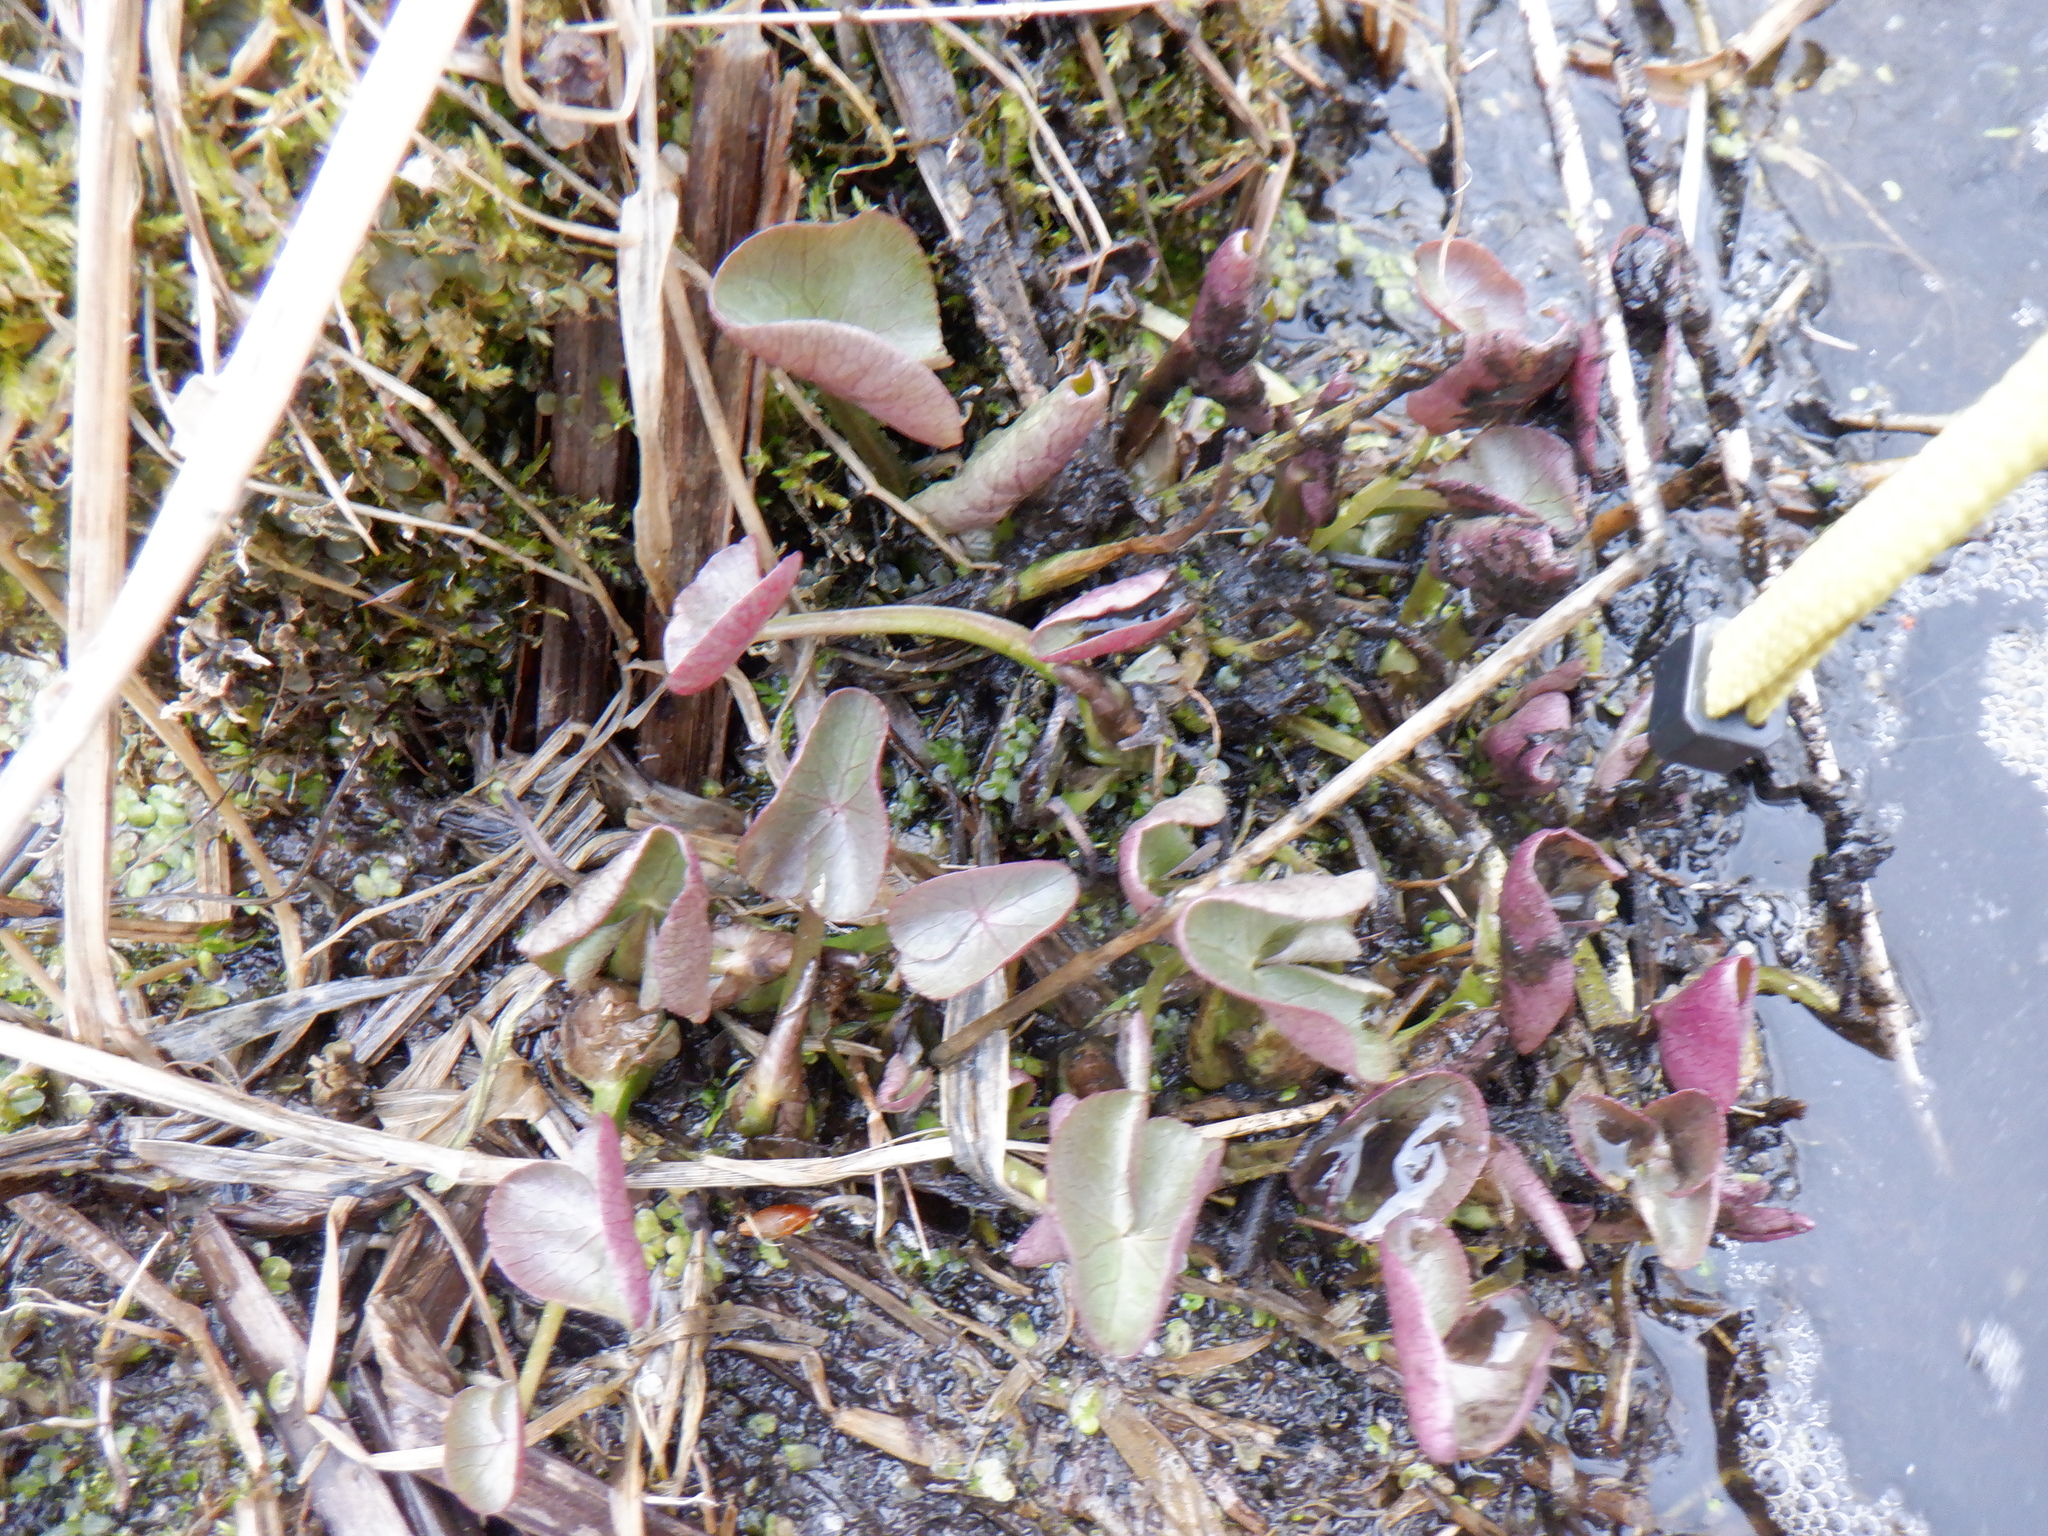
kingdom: Plantae
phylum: Tracheophyta
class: Magnoliopsida
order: Ranunculales
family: Ranunculaceae
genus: Caltha
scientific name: Caltha palustris
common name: Marsh marigold
